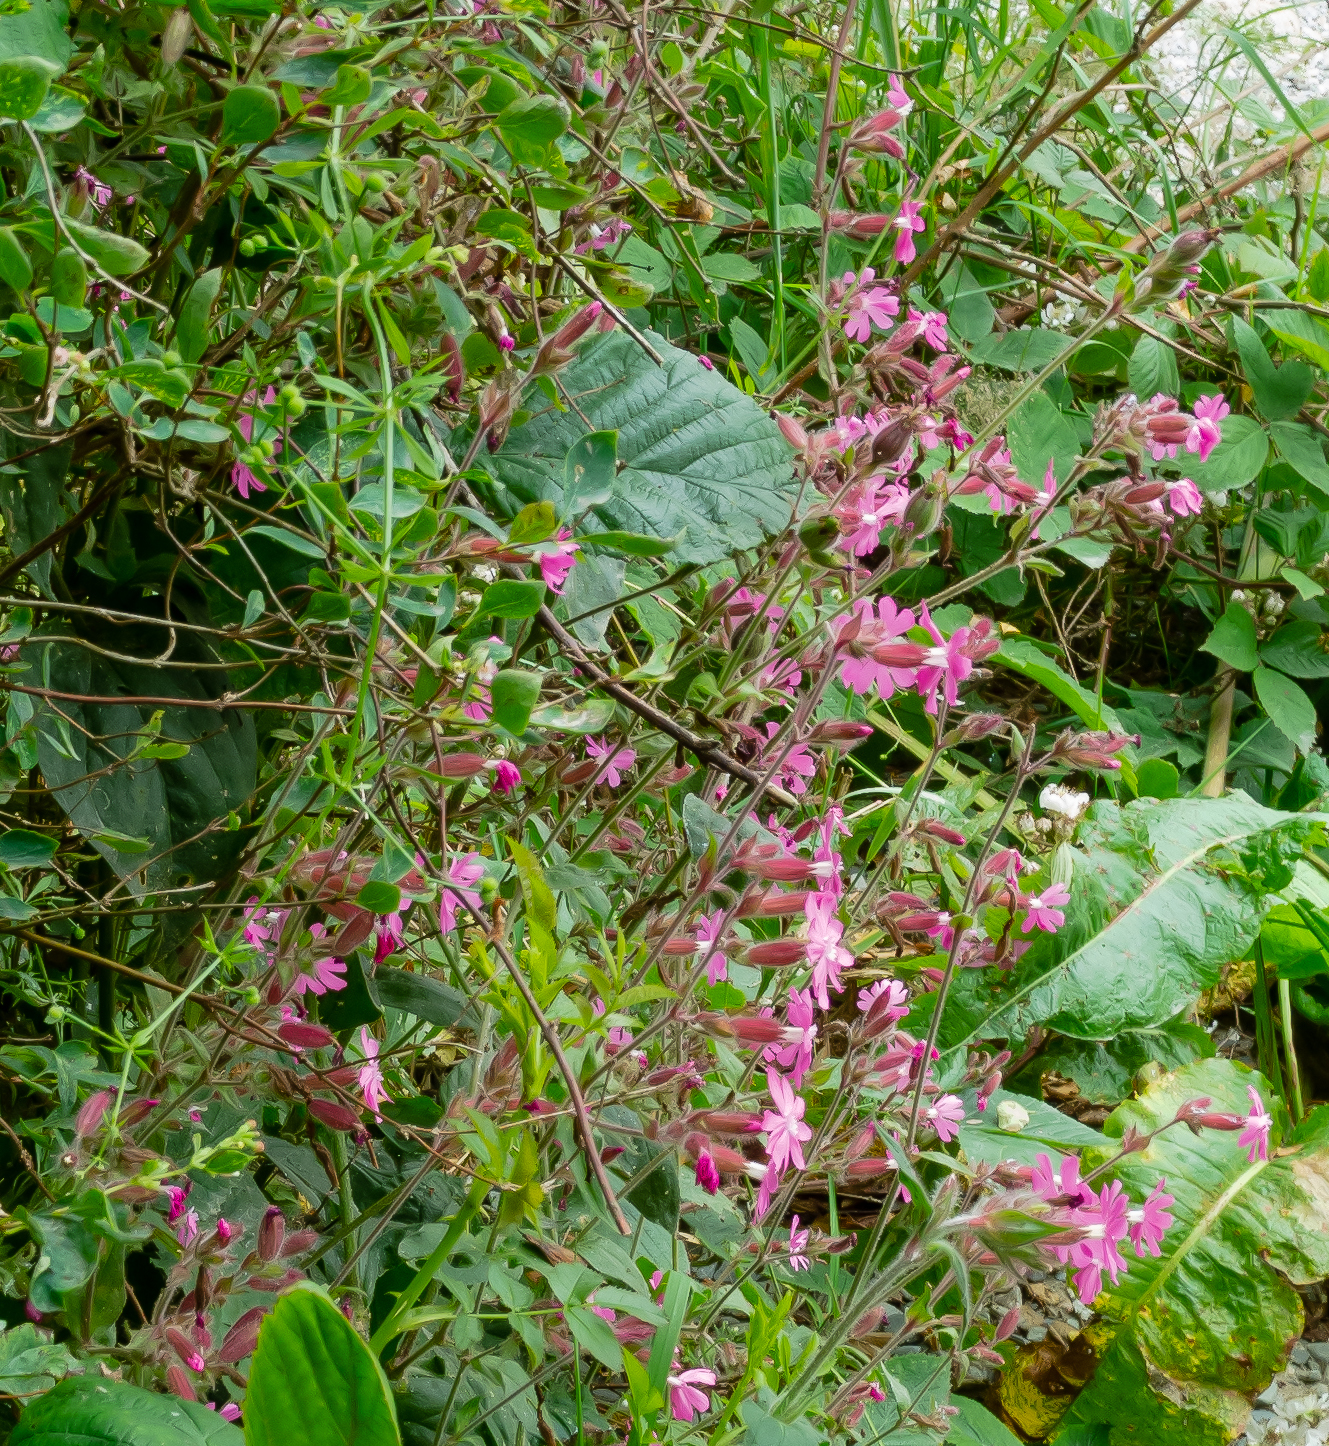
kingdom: Plantae
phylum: Tracheophyta
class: Magnoliopsida
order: Caryophyllales
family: Caryophyllaceae
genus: Silene
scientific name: Silene dioica
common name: Red campion
